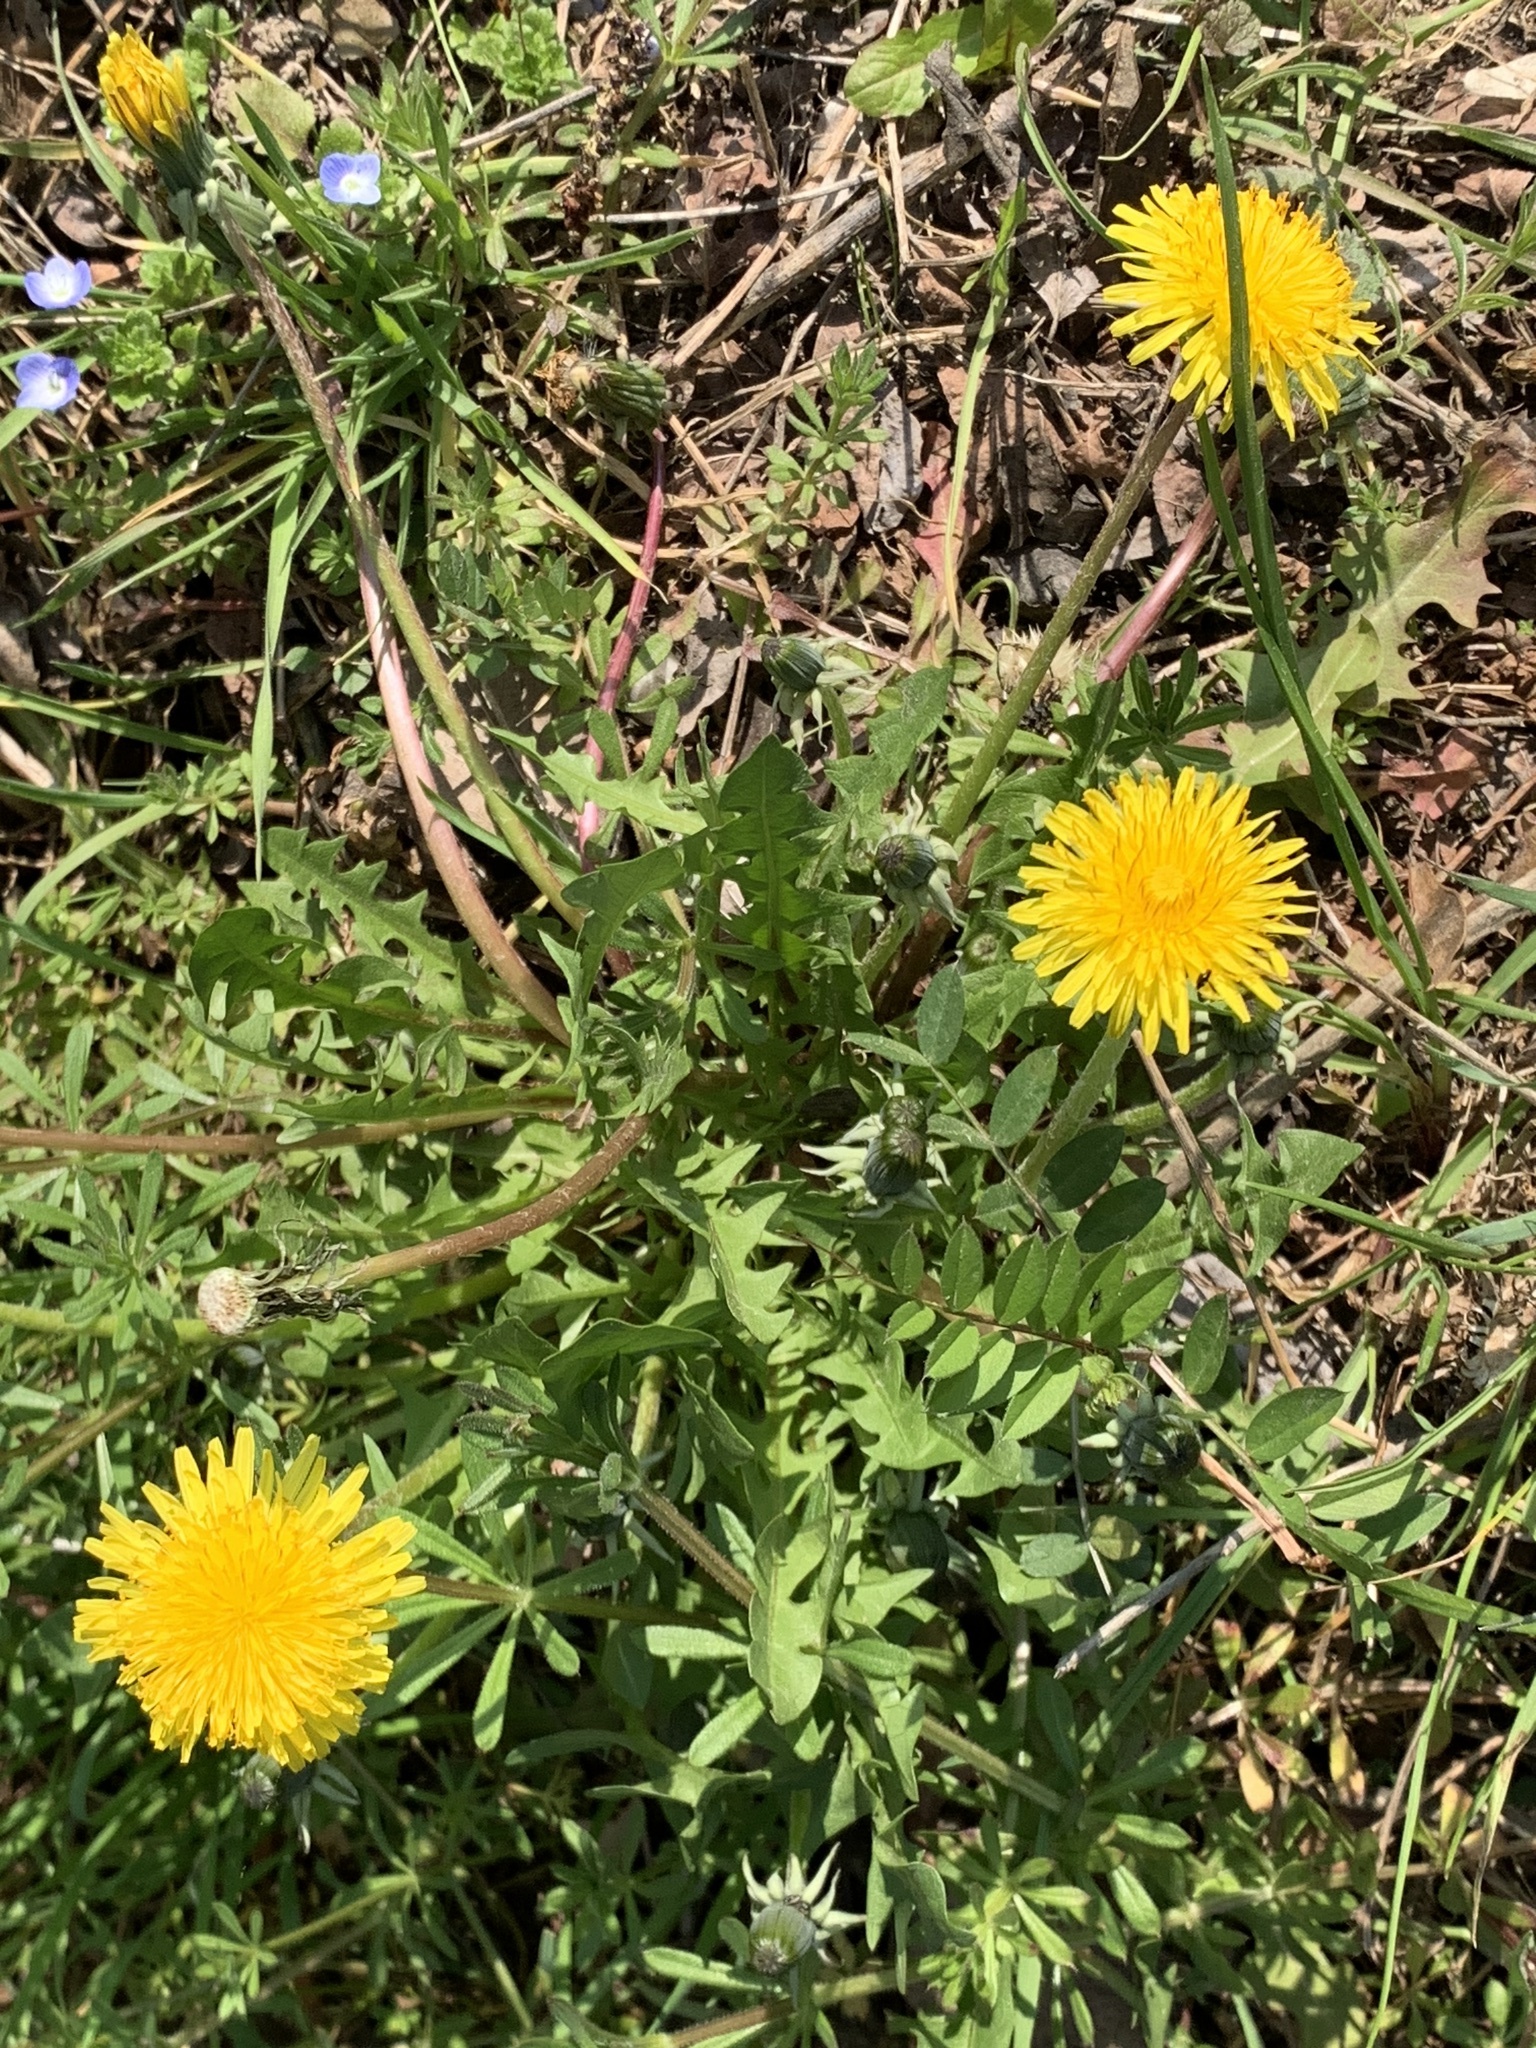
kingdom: Plantae
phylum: Tracheophyta
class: Magnoliopsida
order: Asterales
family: Asteraceae
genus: Taraxacum
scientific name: Taraxacum
